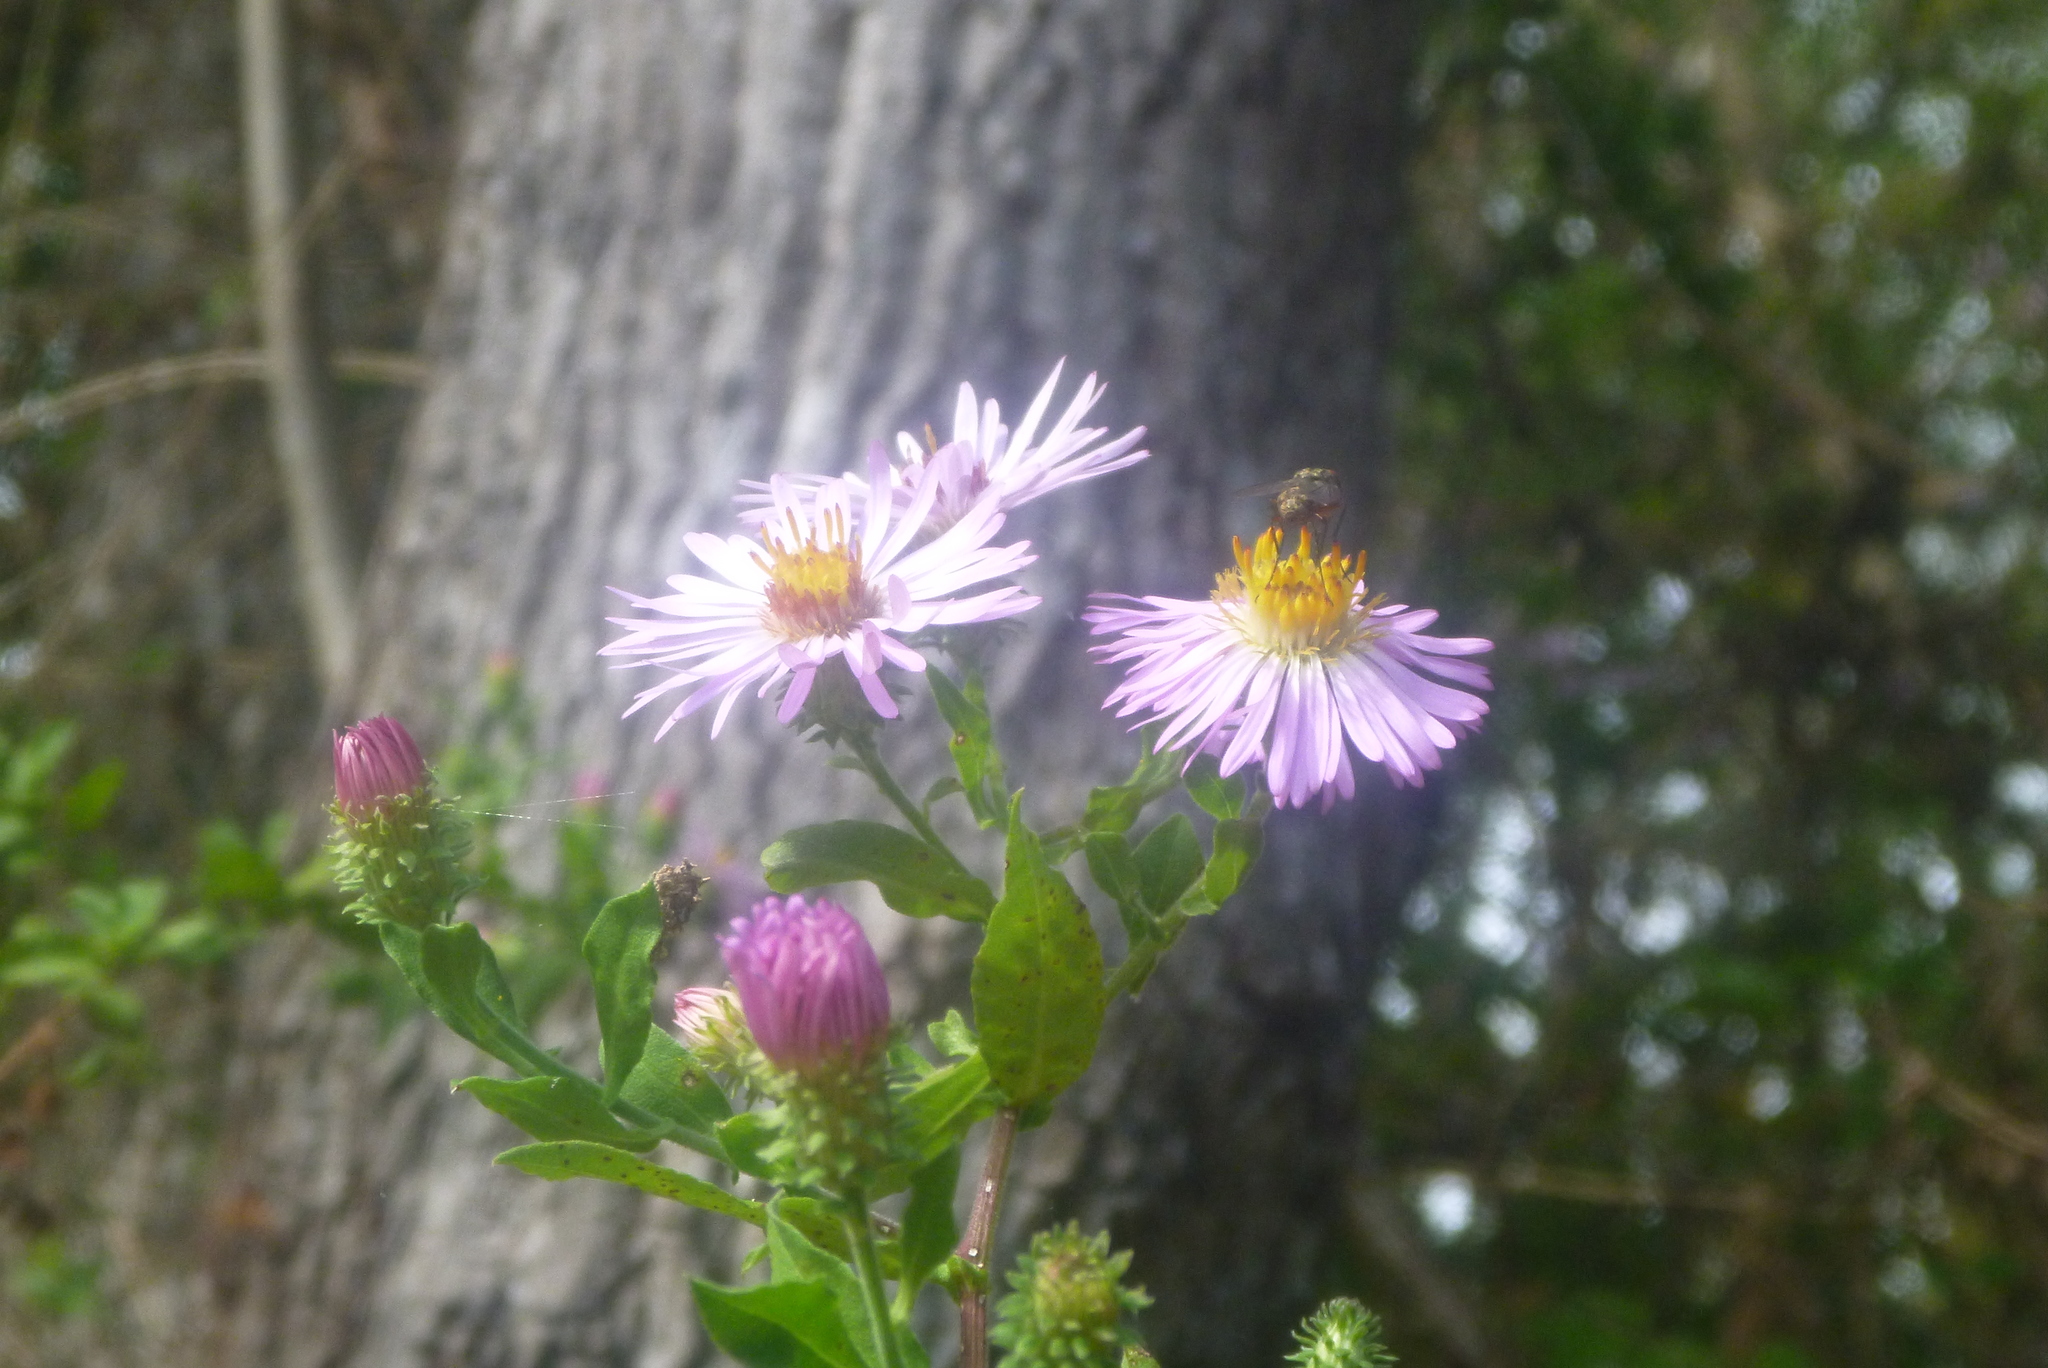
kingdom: Plantae
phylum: Tracheophyta
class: Magnoliopsida
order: Asterales
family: Asteraceae
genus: Ampelaster
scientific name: Ampelaster carolinianus
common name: Climbing aster
